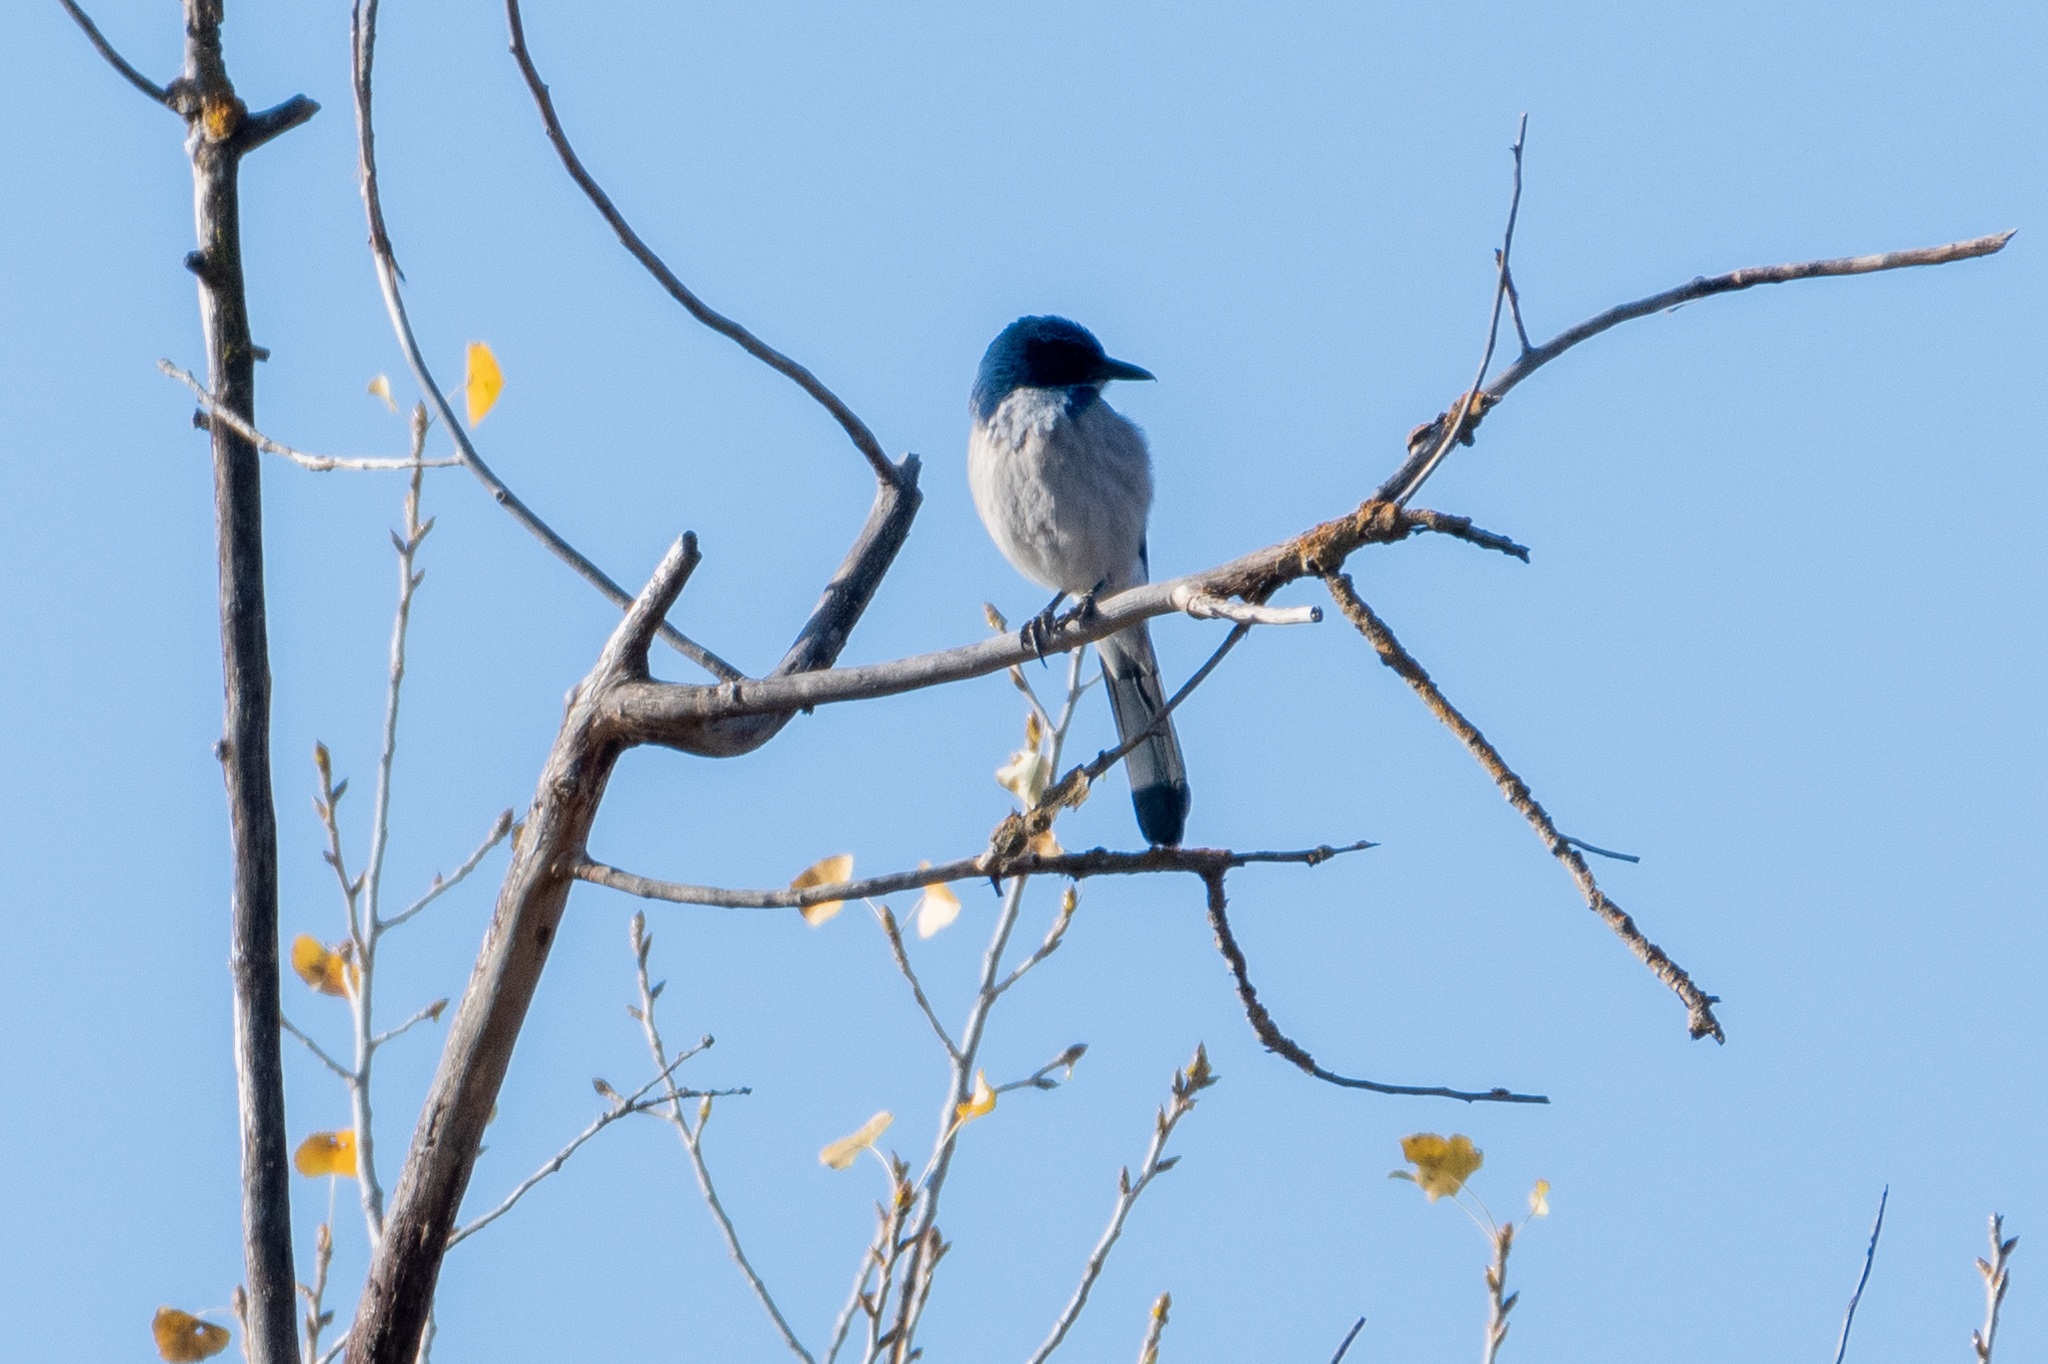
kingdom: Animalia
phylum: Chordata
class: Aves
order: Passeriformes
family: Corvidae
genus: Aphelocoma
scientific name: Aphelocoma californica
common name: California scrub-jay
